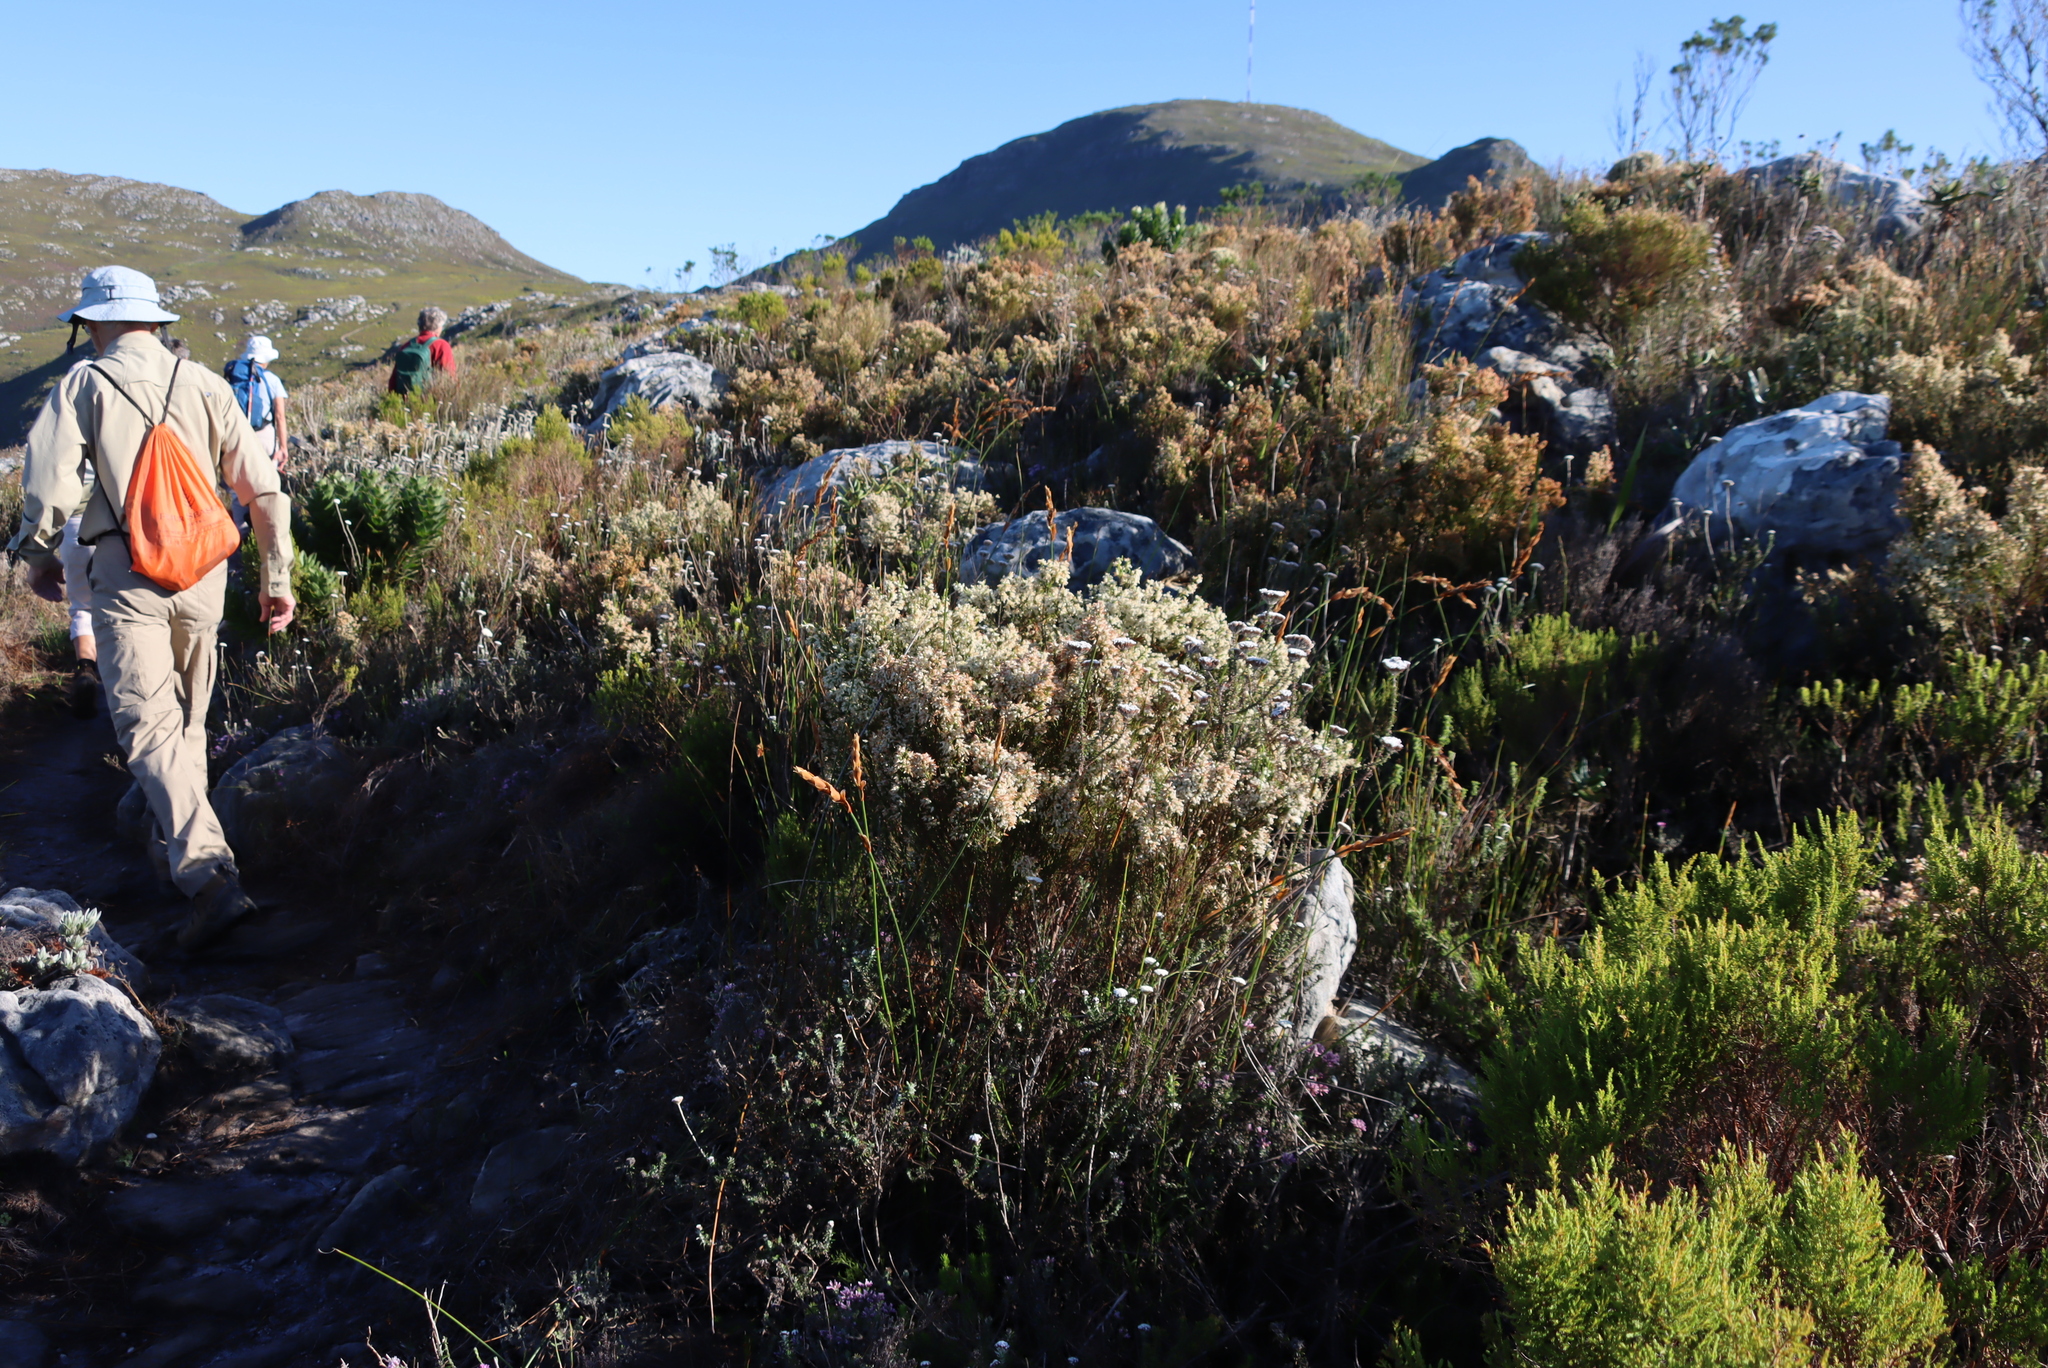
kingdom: Plantae
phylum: Tracheophyta
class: Magnoliopsida
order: Ericales
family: Ericaceae
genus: Erica
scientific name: Erica lutea
